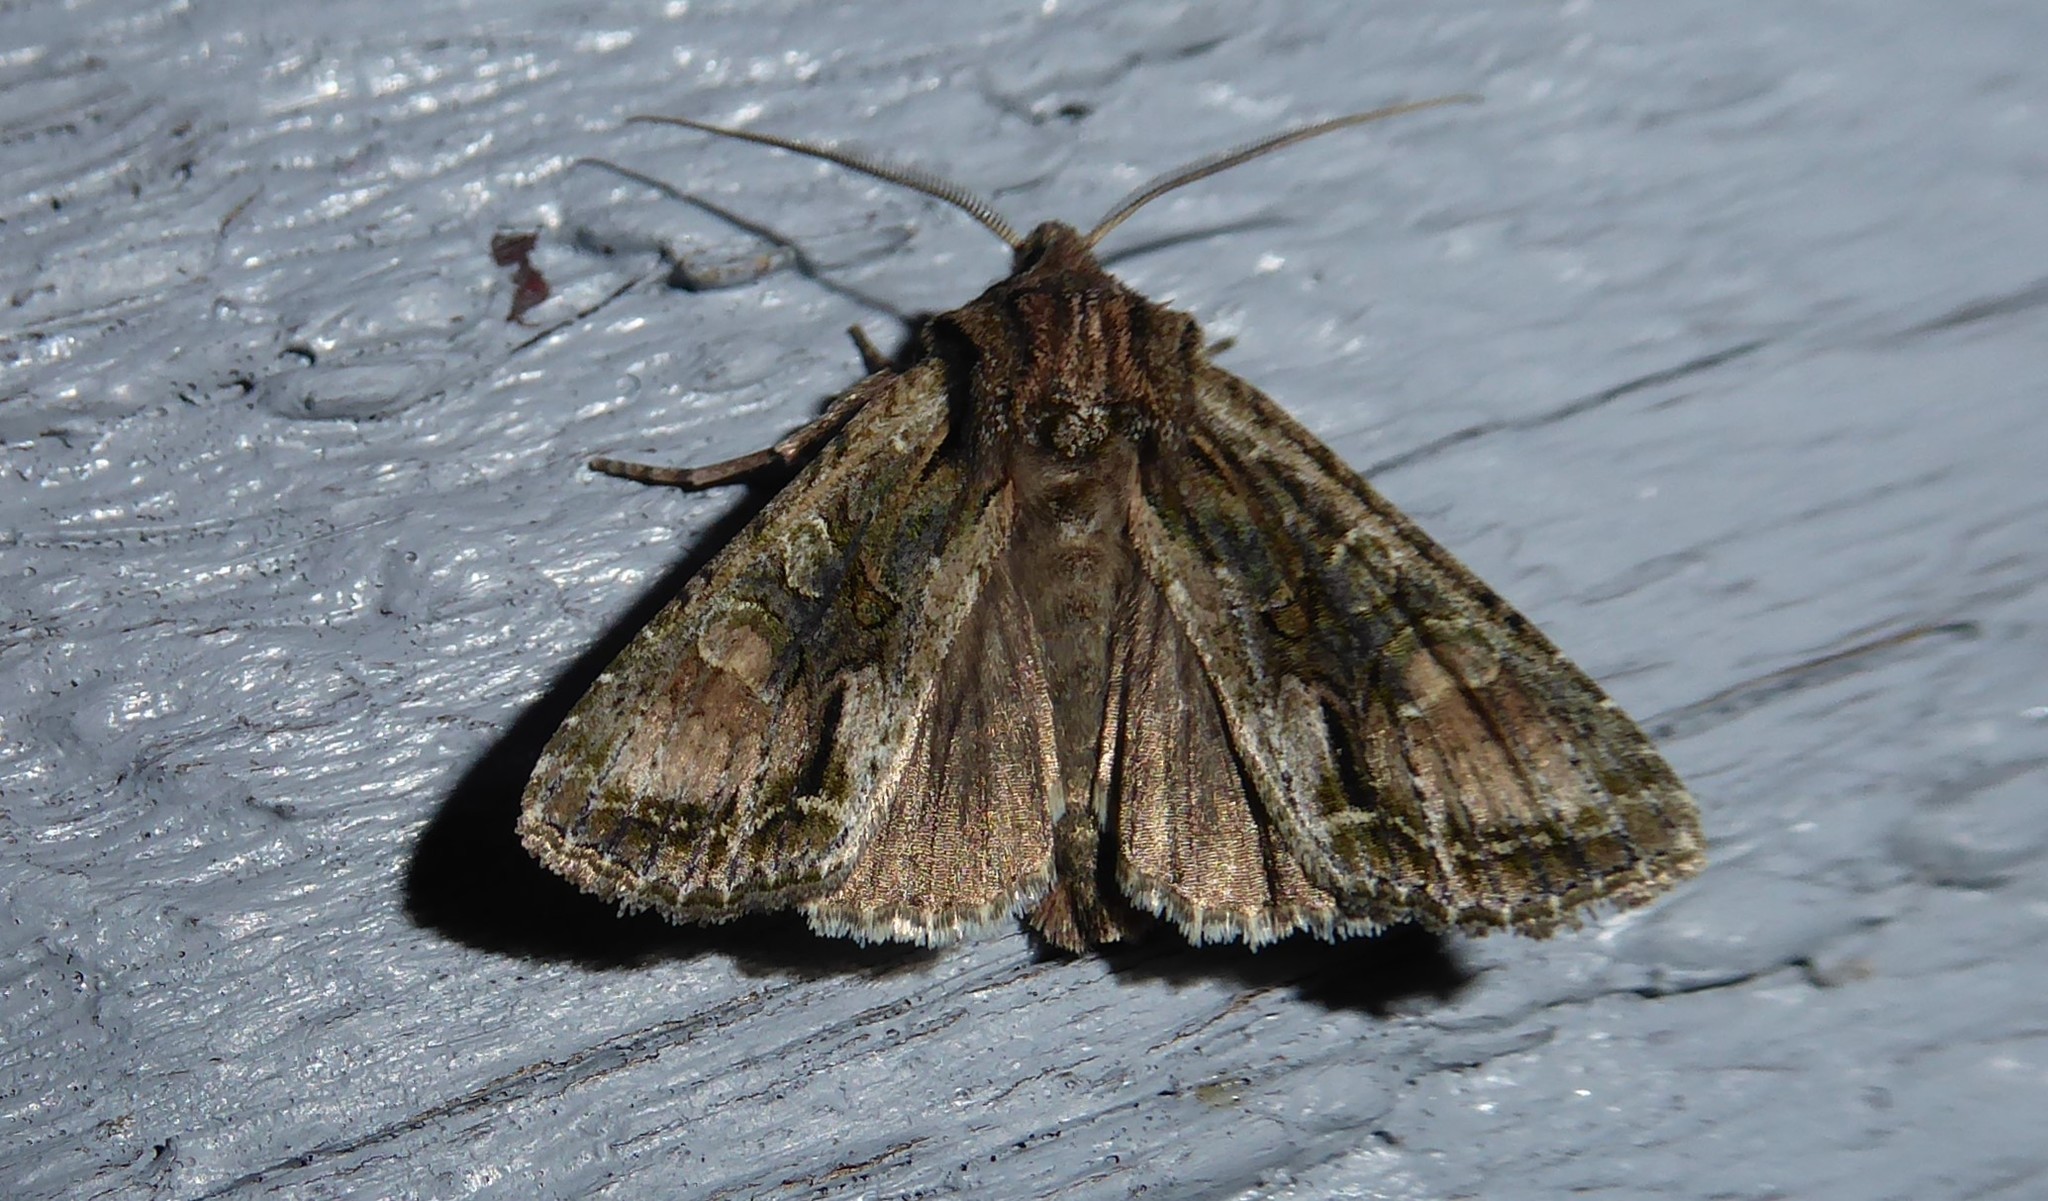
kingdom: Animalia
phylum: Arthropoda
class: Insecta
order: Lepidoptera
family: Noctuidae
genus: Ichneutica
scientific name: Ichneutica mutans
